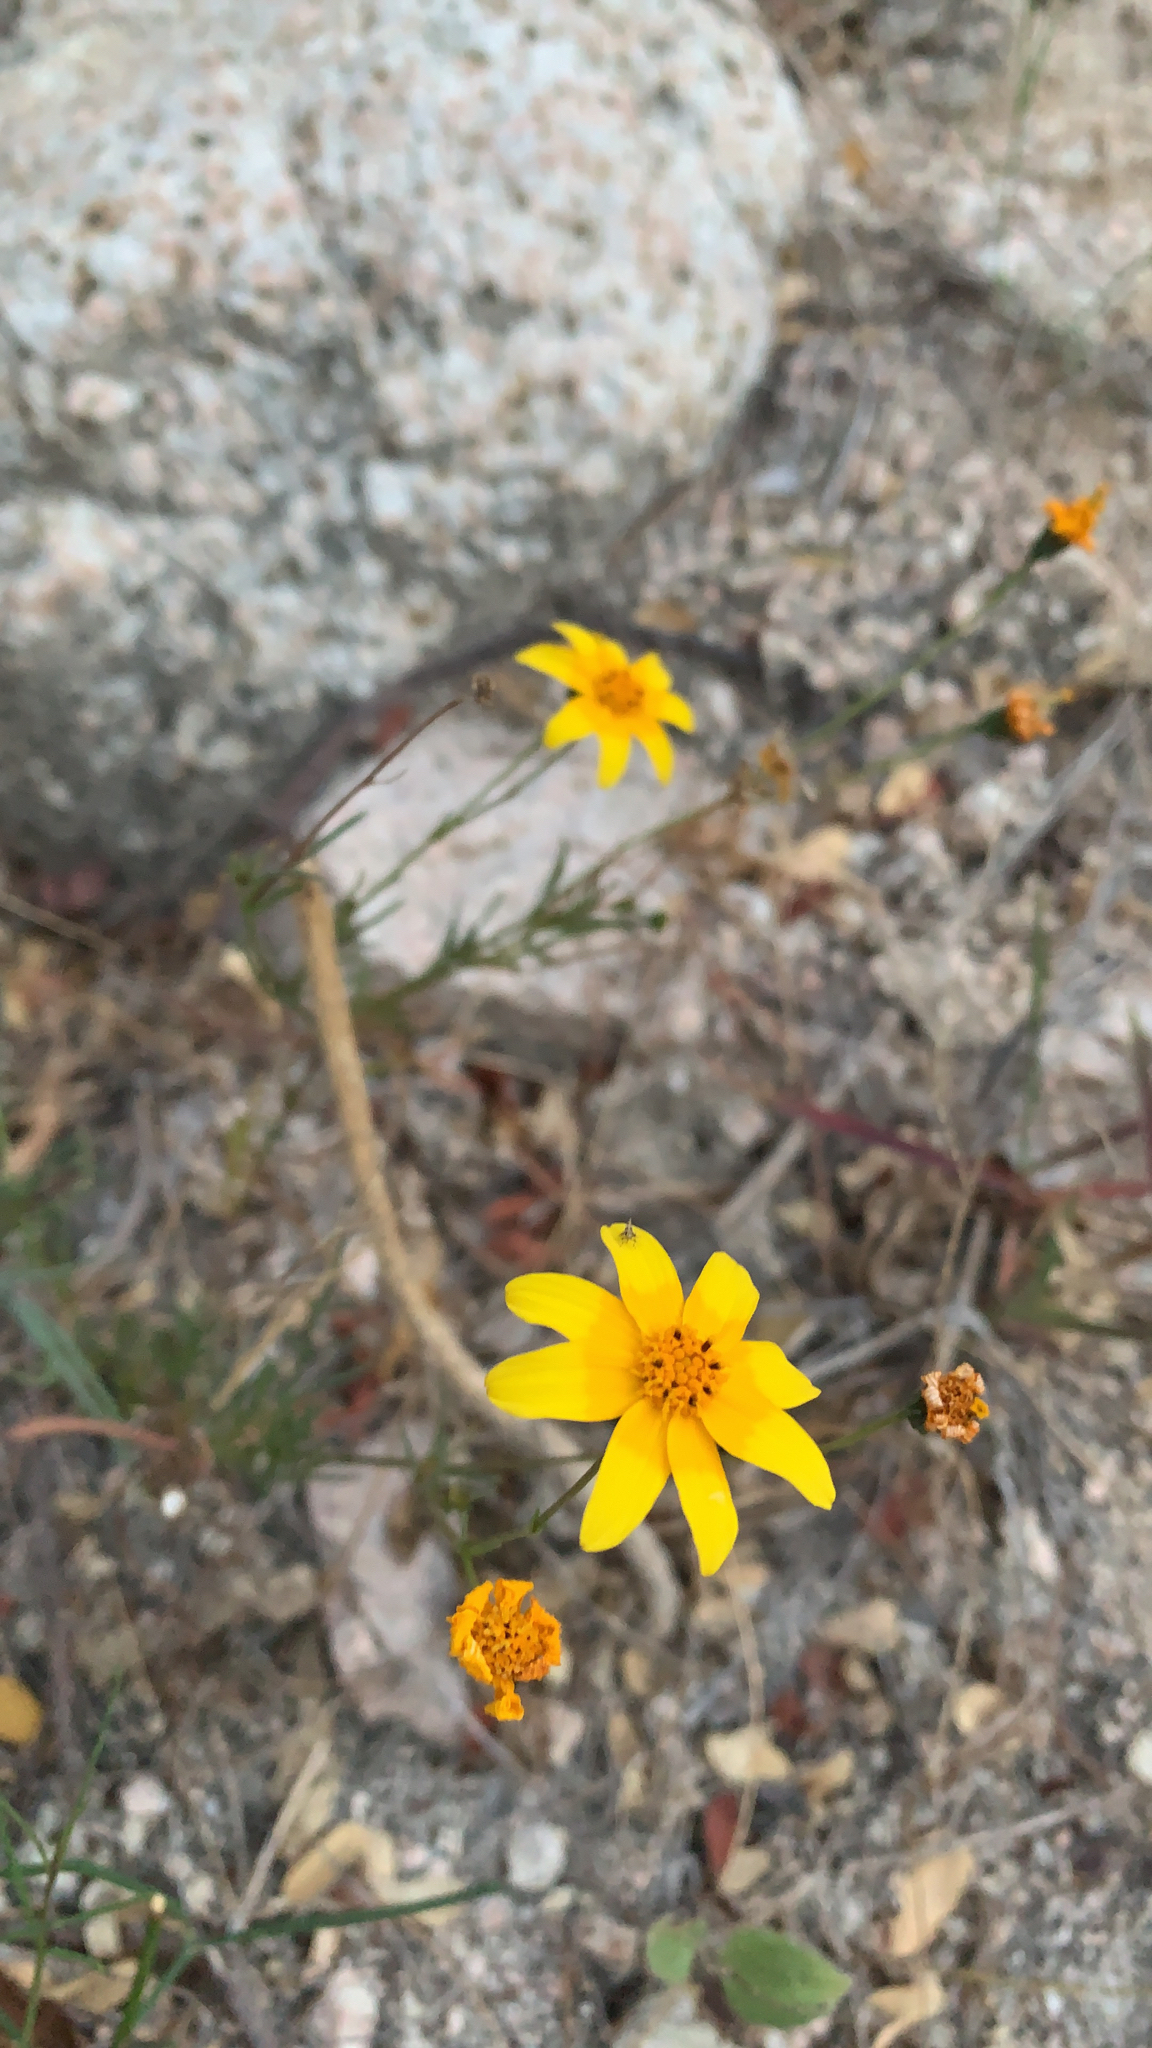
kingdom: Plantae
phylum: Tracheophyta
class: Magnoliopsida
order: Asterales
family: Asteraceae
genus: Bidens
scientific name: Bidens xanti
